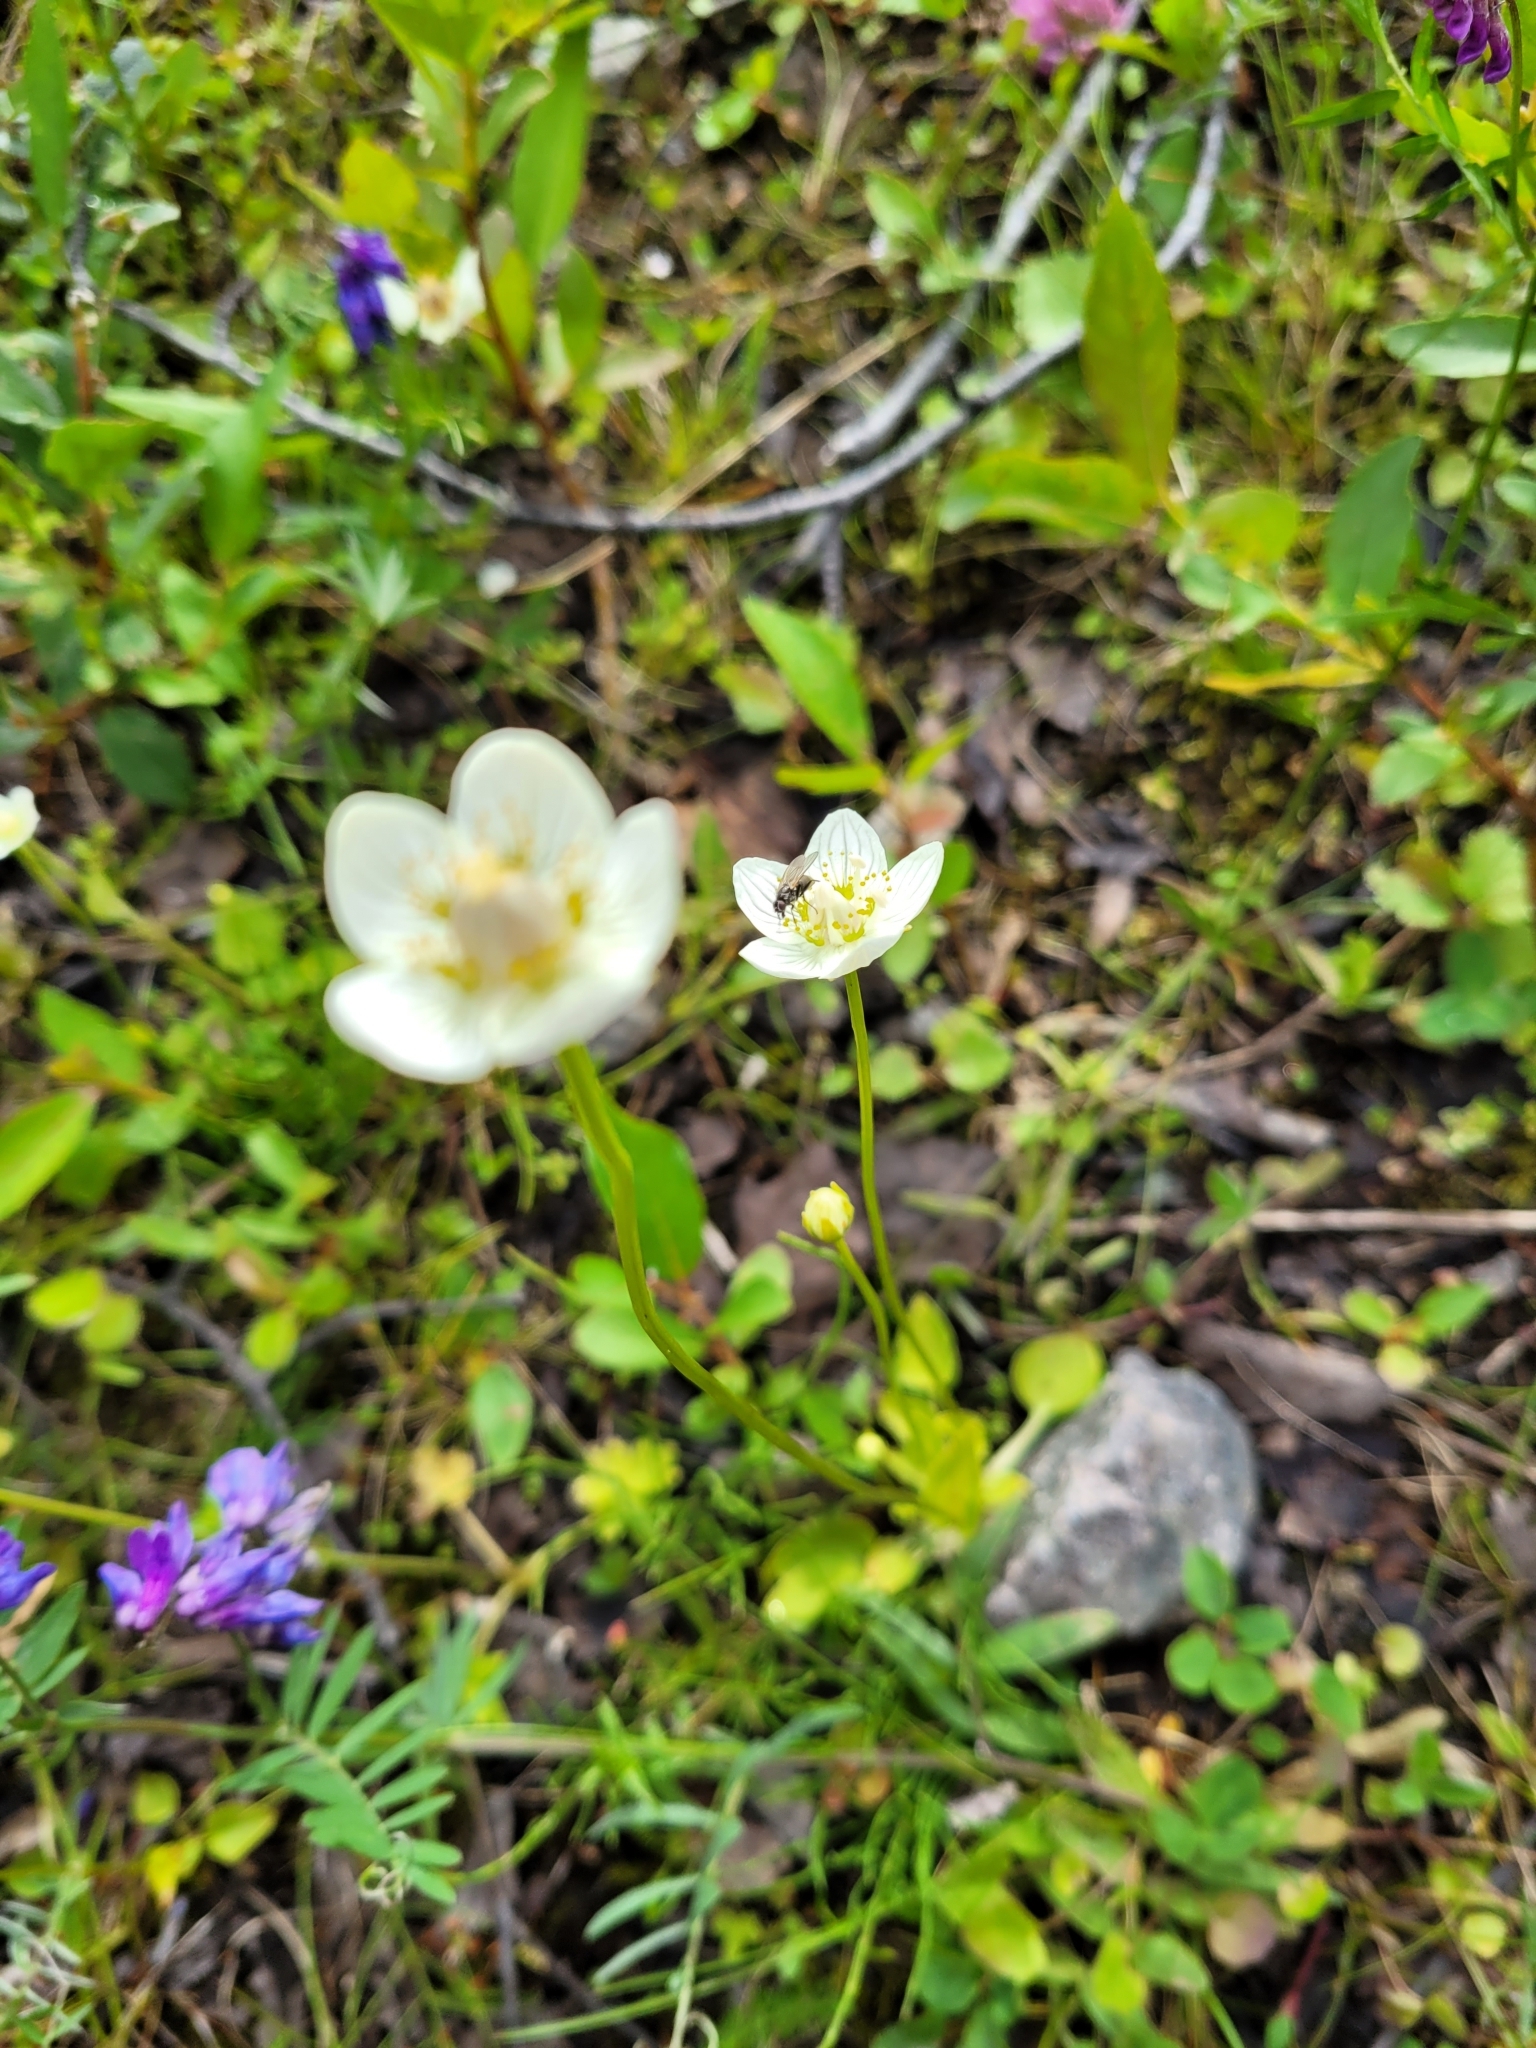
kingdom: Plantae
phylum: Tracheophyta
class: Magnoliopsida
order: Celastrales
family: Parnassiaceae
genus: Parnassia
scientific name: Parnassia palustris
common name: Grass-of-parnassus
